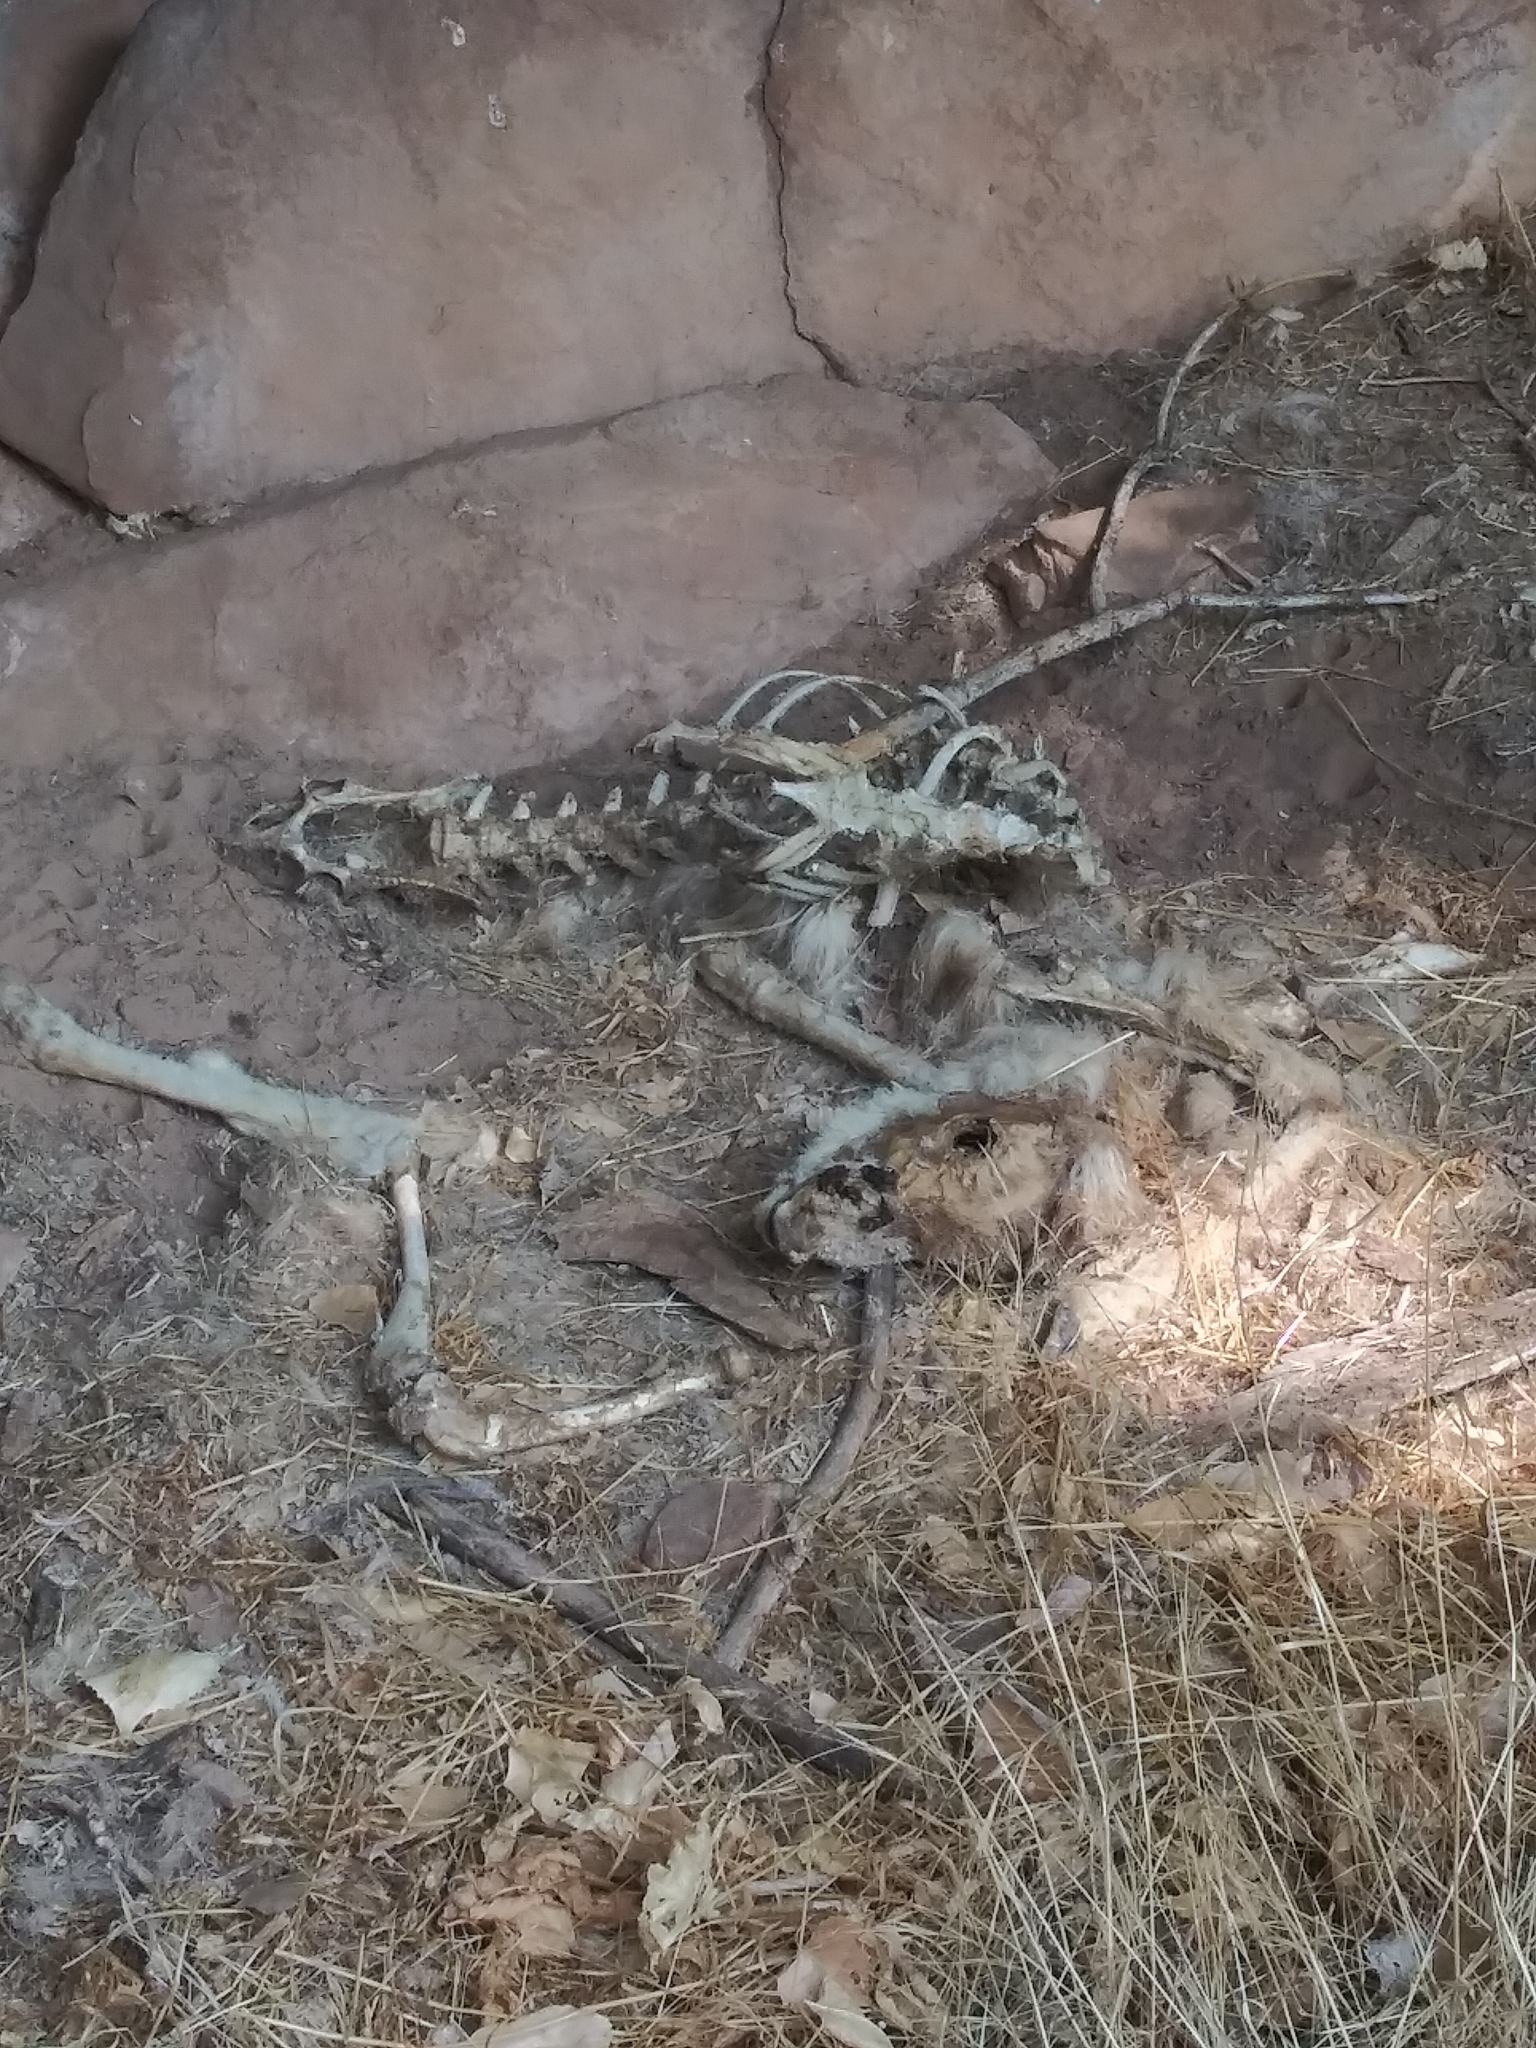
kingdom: Animalia
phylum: Chordata
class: Mammalia
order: Artiodactyla
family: Cervidae
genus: Odocoileus
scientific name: Odocoileus hemionus
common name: Mule deer
